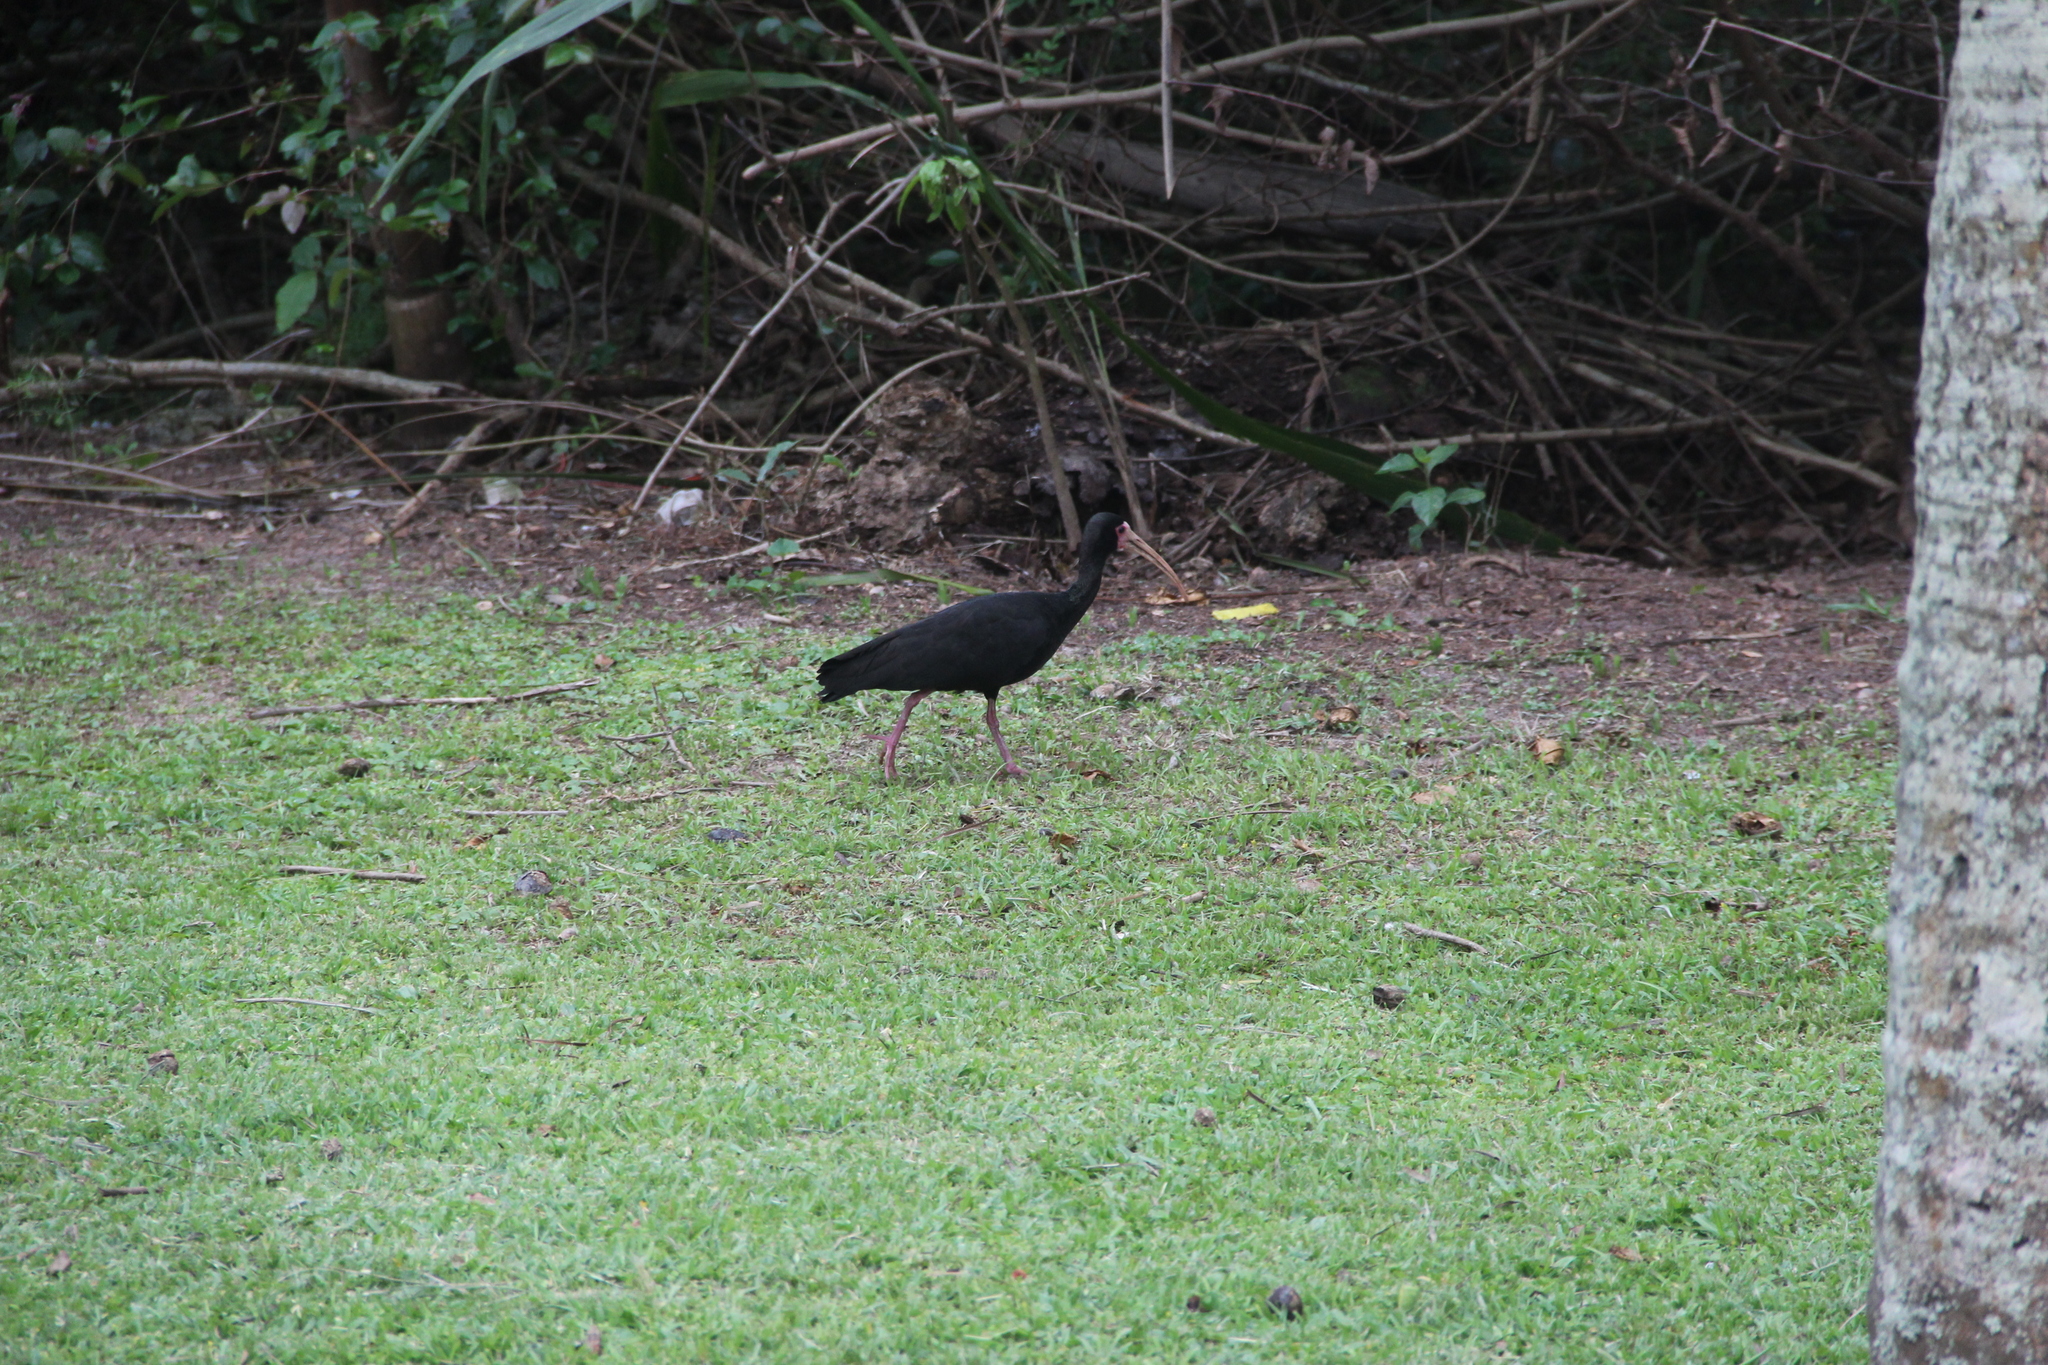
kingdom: Animalia
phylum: Chordata
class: Aves
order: Pelecaniformes
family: Threskiornithidae
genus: Phimosus
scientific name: Phimosus infuscatus
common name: Bare-faced ibis
